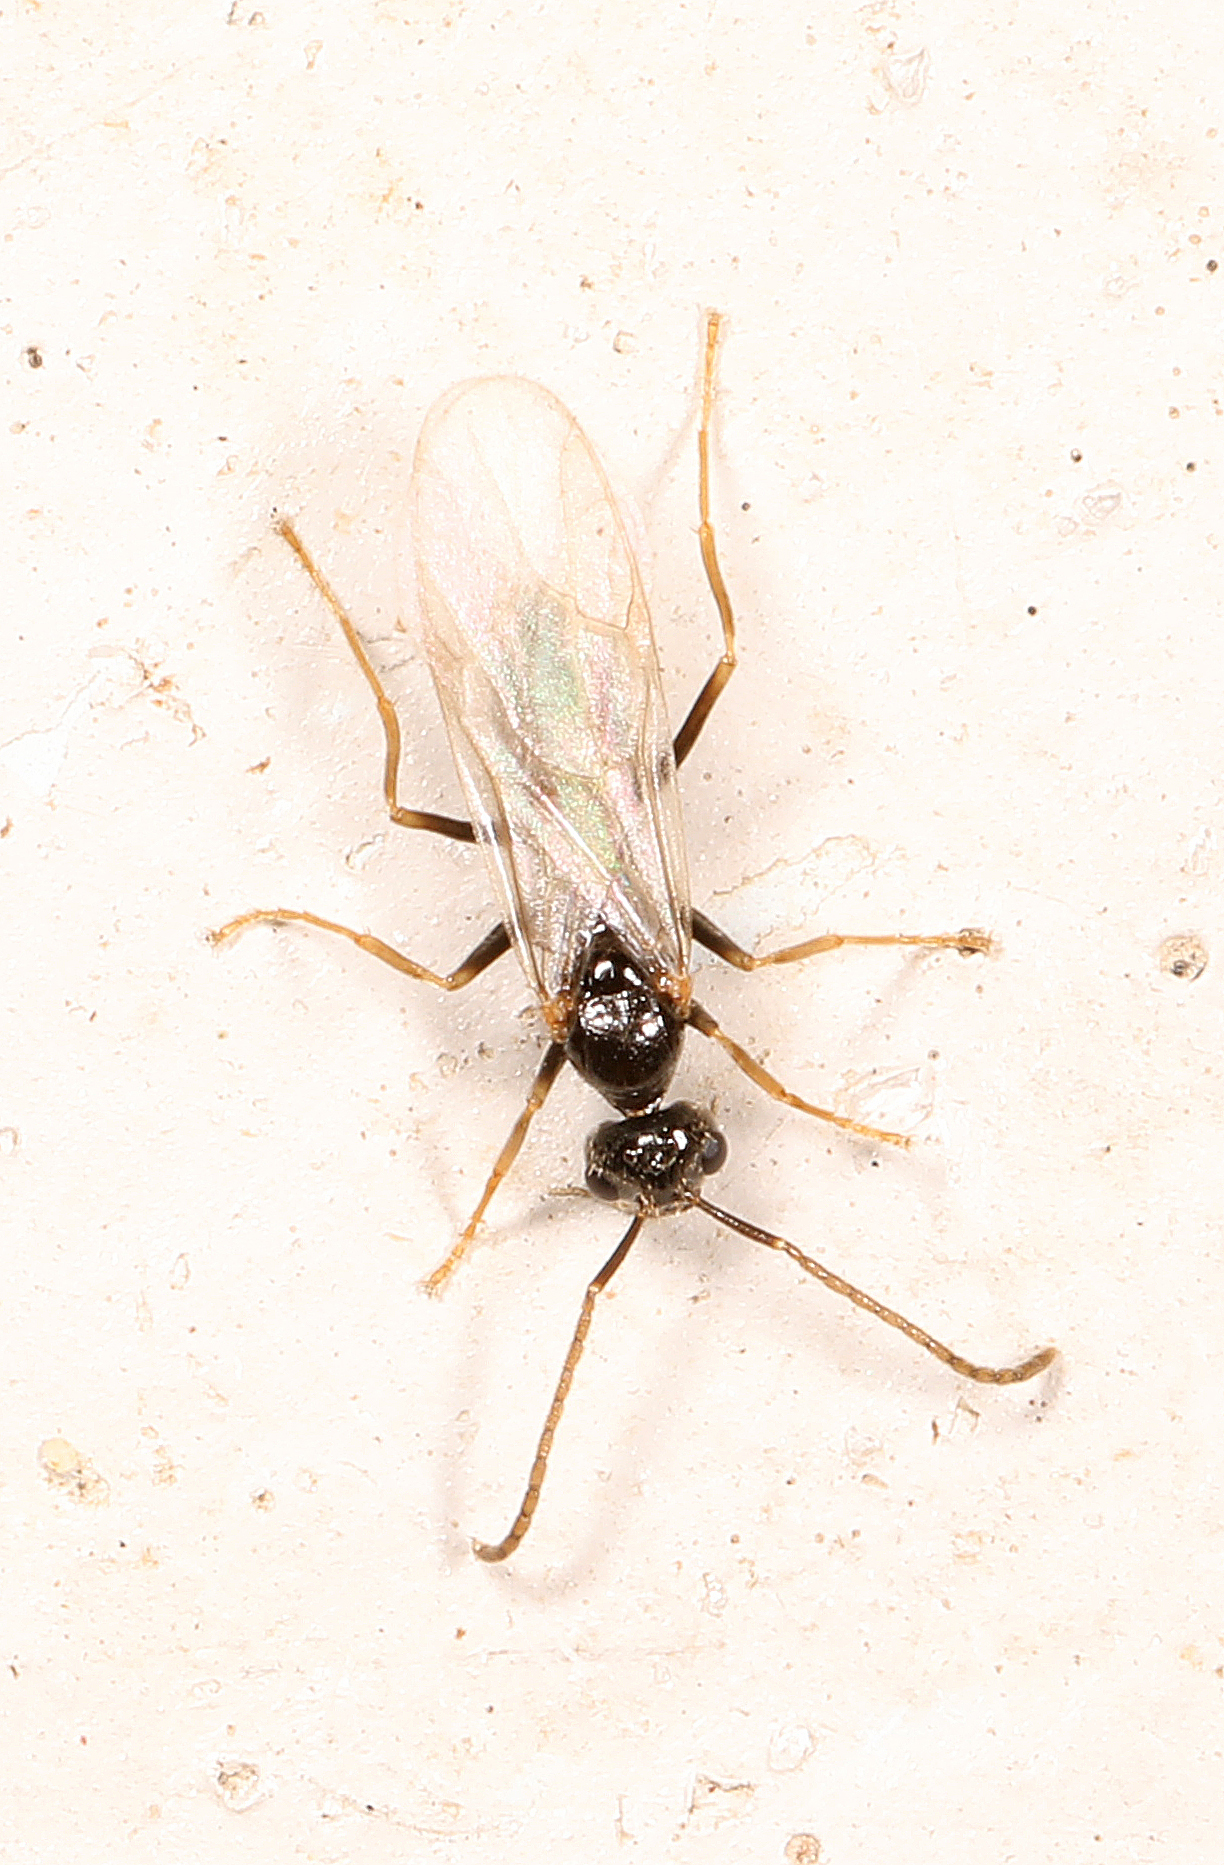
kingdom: Animalia
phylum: Arthropoda
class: Insecta
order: Hymenoptera
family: Formicidae
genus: Prenolepis
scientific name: Prenolepis imparis
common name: Small honey ant
